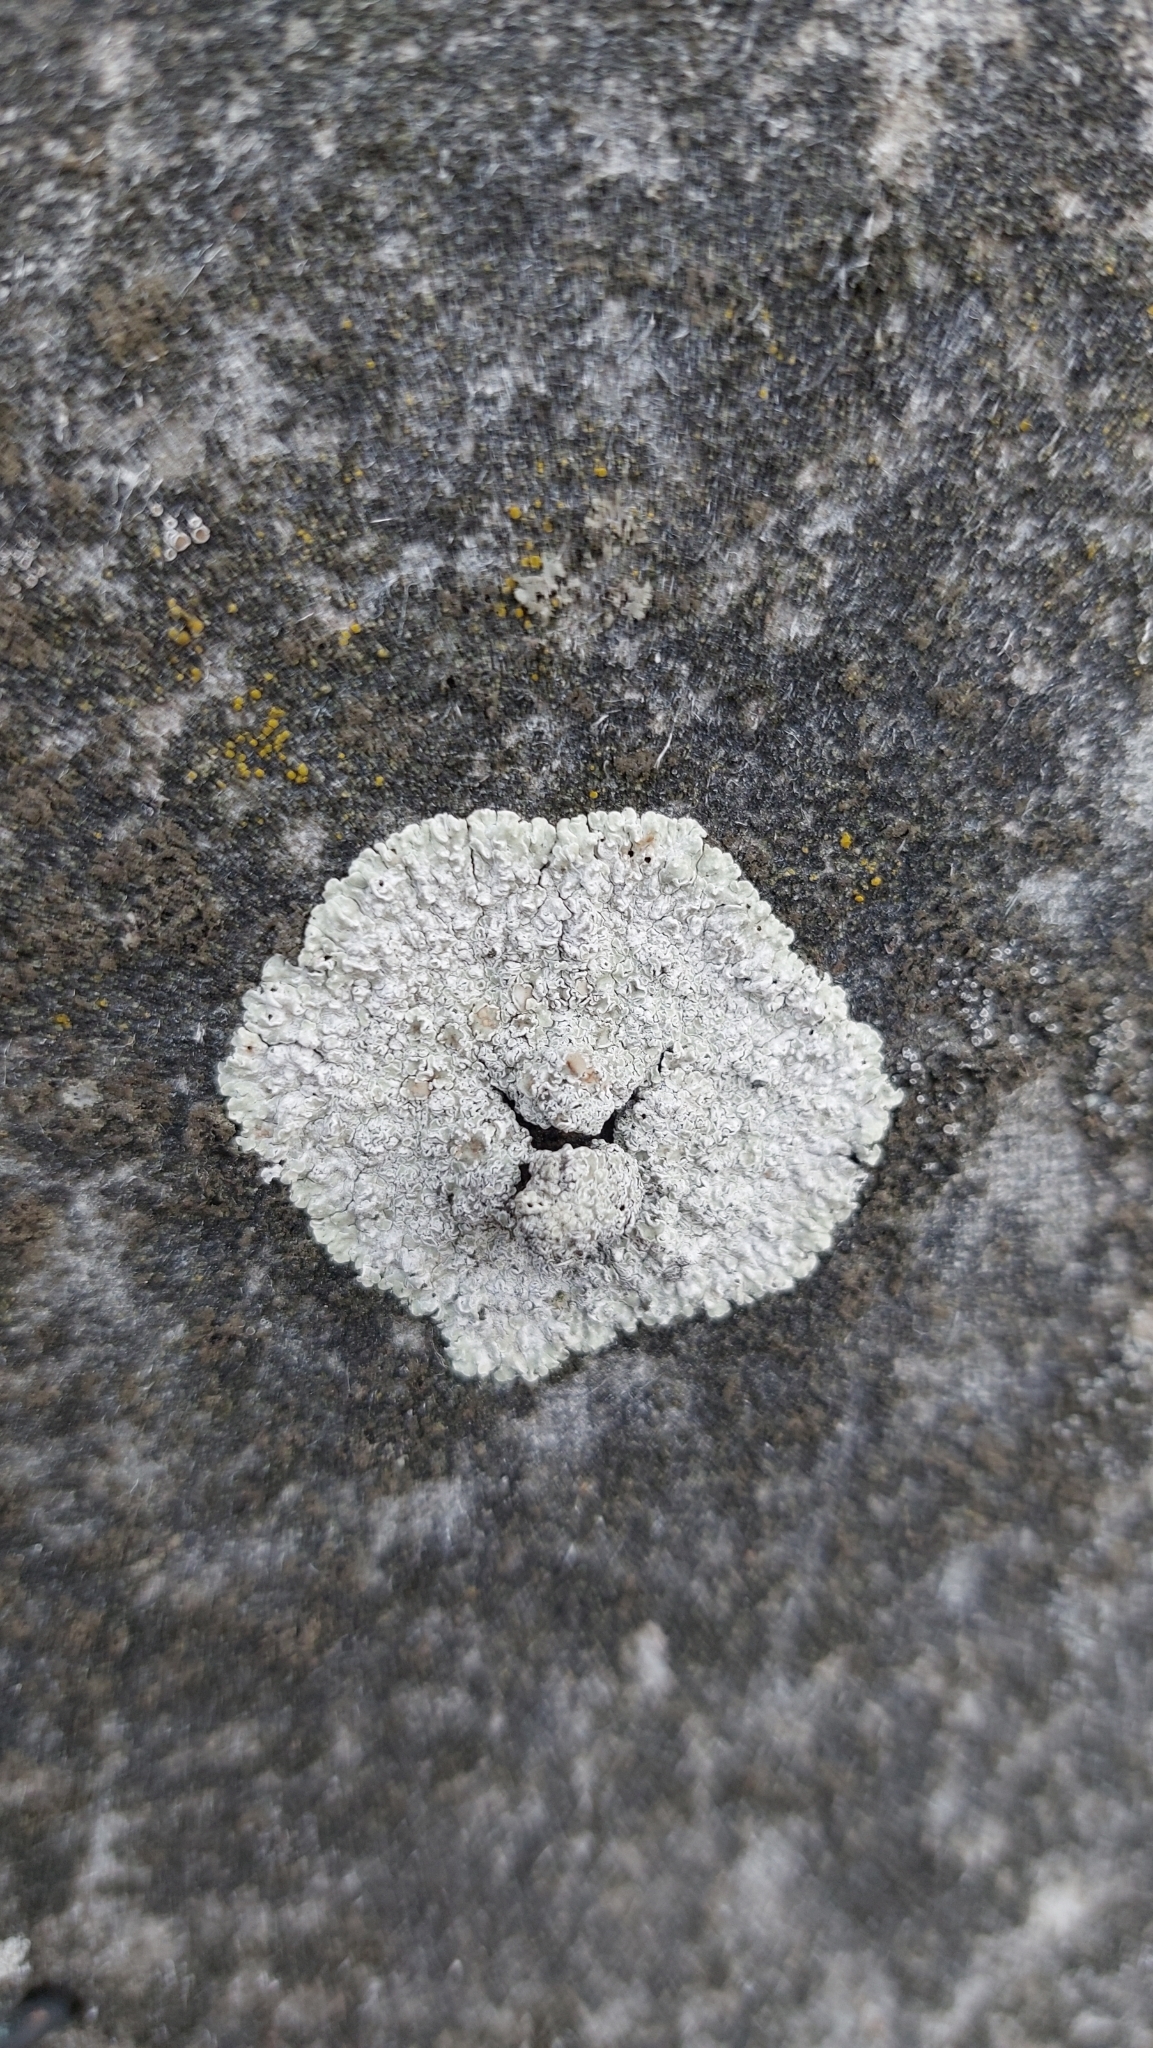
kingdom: Fungi
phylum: Ascomycota
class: Lecanoromycetes
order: Lecanorales
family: Lecanoraceae
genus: Protoparmeliopsis
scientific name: Protoparmeliopsis muralis
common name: Stonewall rim lichen
